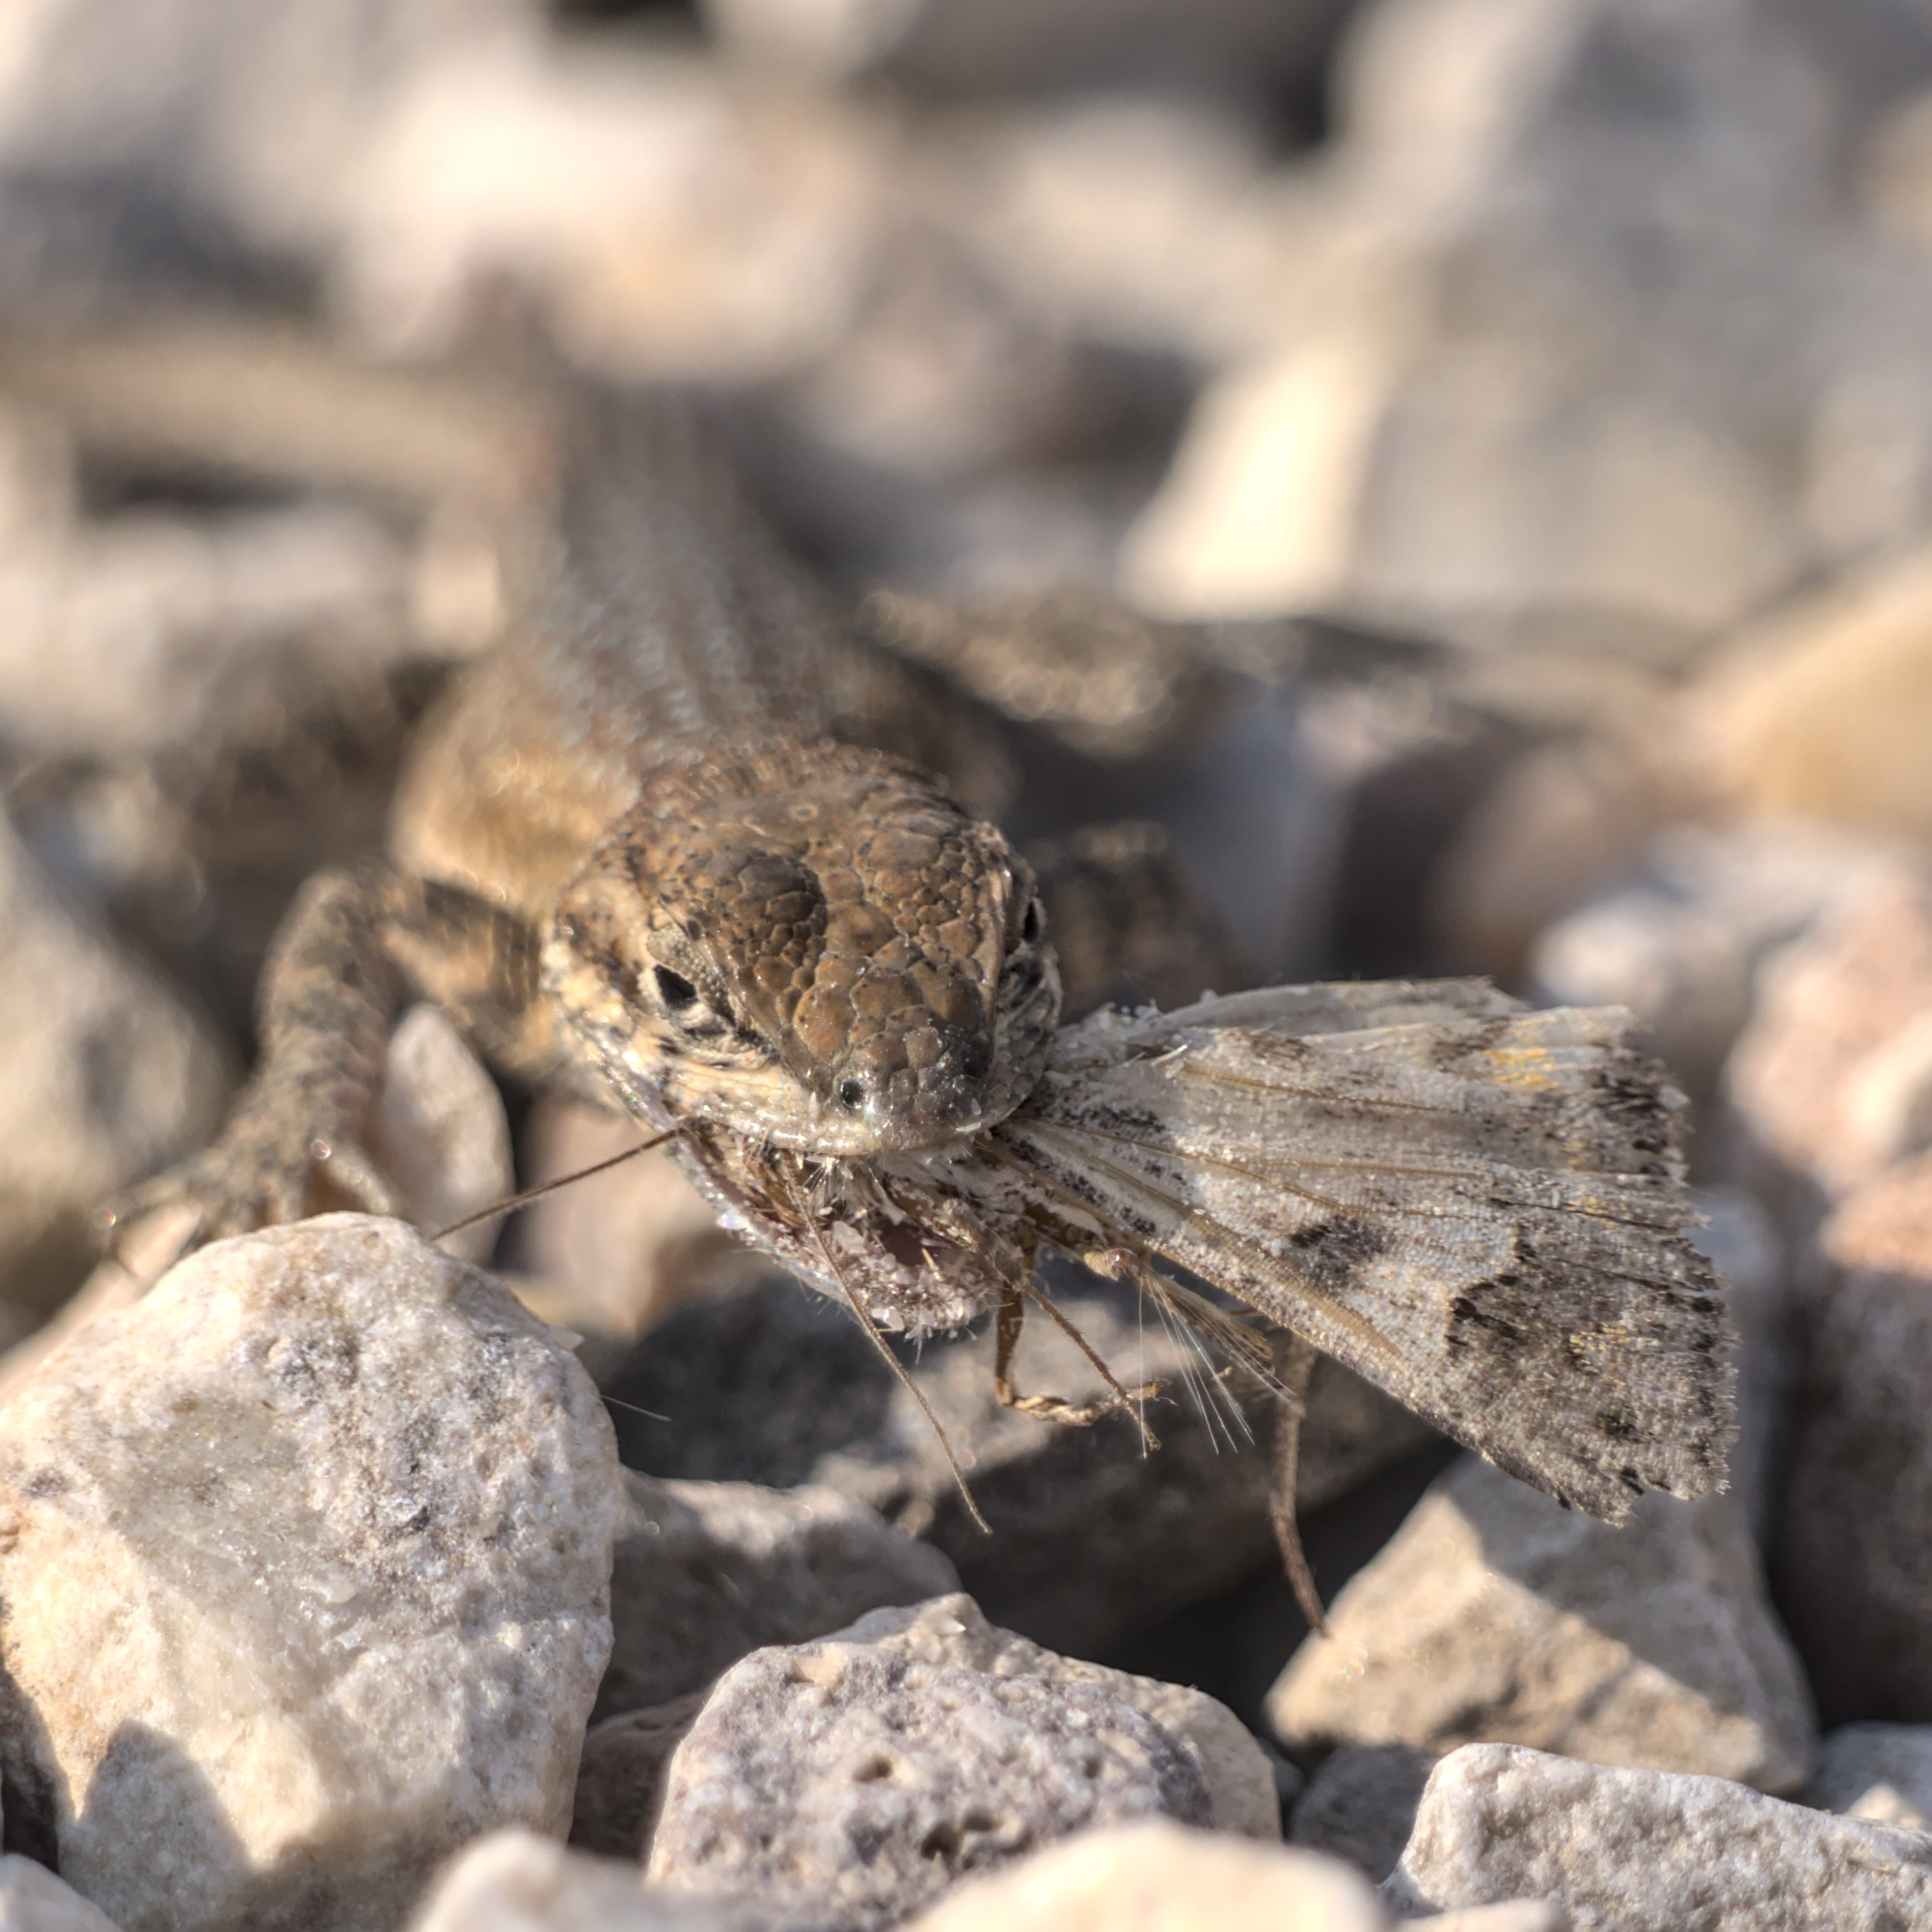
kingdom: Animalia
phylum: Chordata
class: Squamata
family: Phrynosomatidae
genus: Uta
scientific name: Uta stansburiana
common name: Side-blotched lizard
